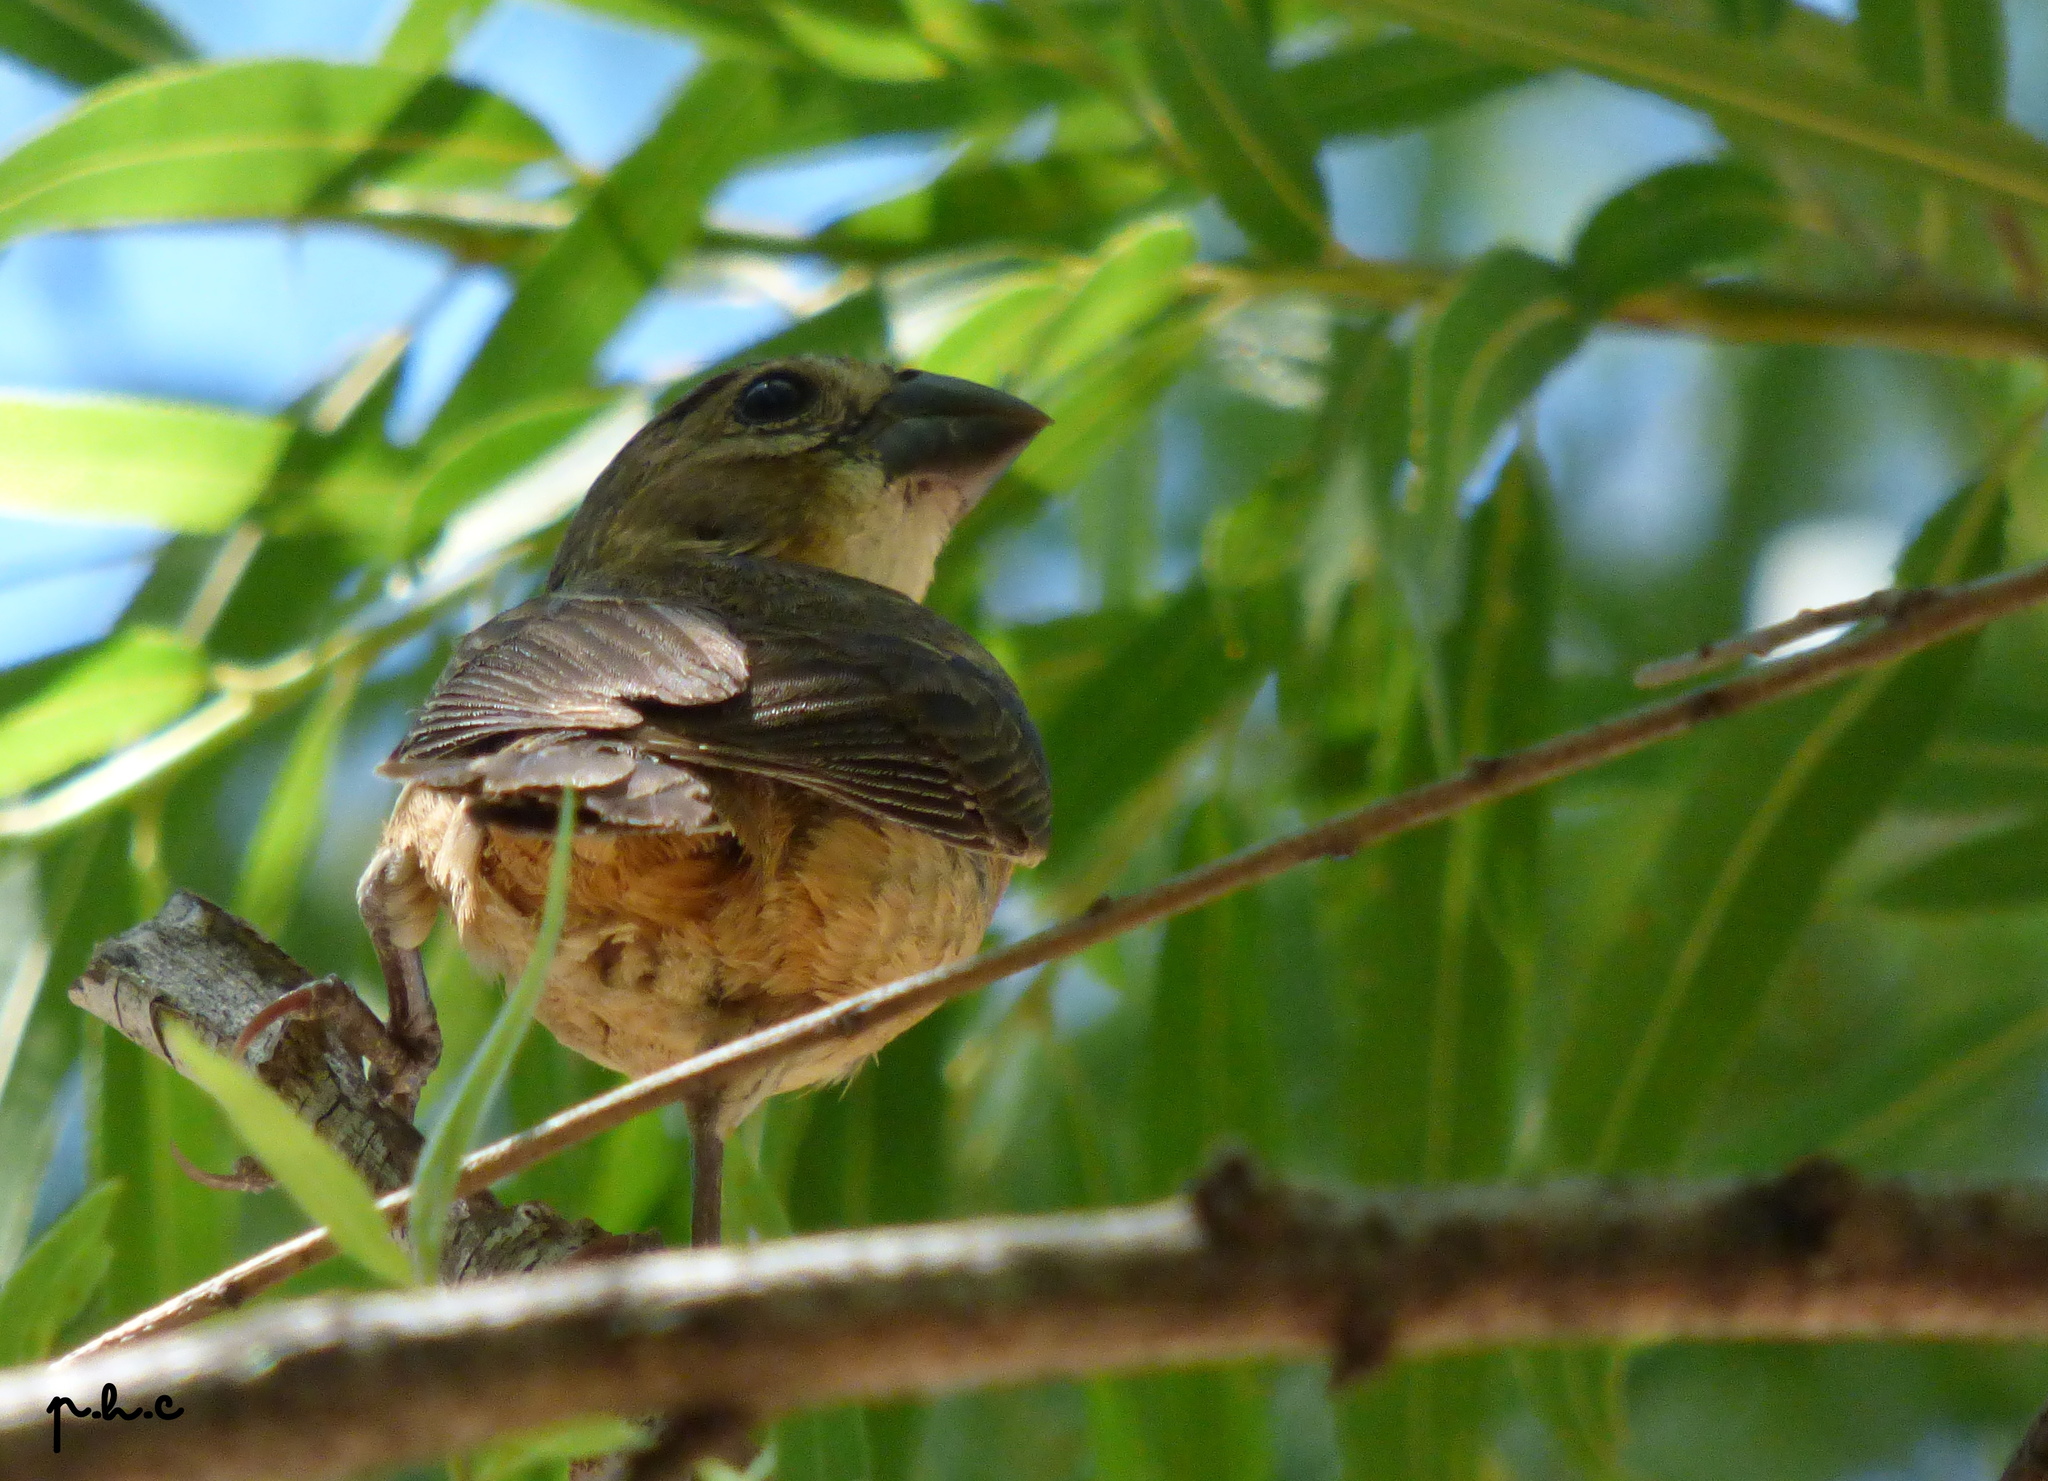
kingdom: Animalia
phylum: Chordata
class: Aves
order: Passeriformes
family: Thraupidae
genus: Sporophila
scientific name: Sporophila collaris
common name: Rusty-collared seedeater
